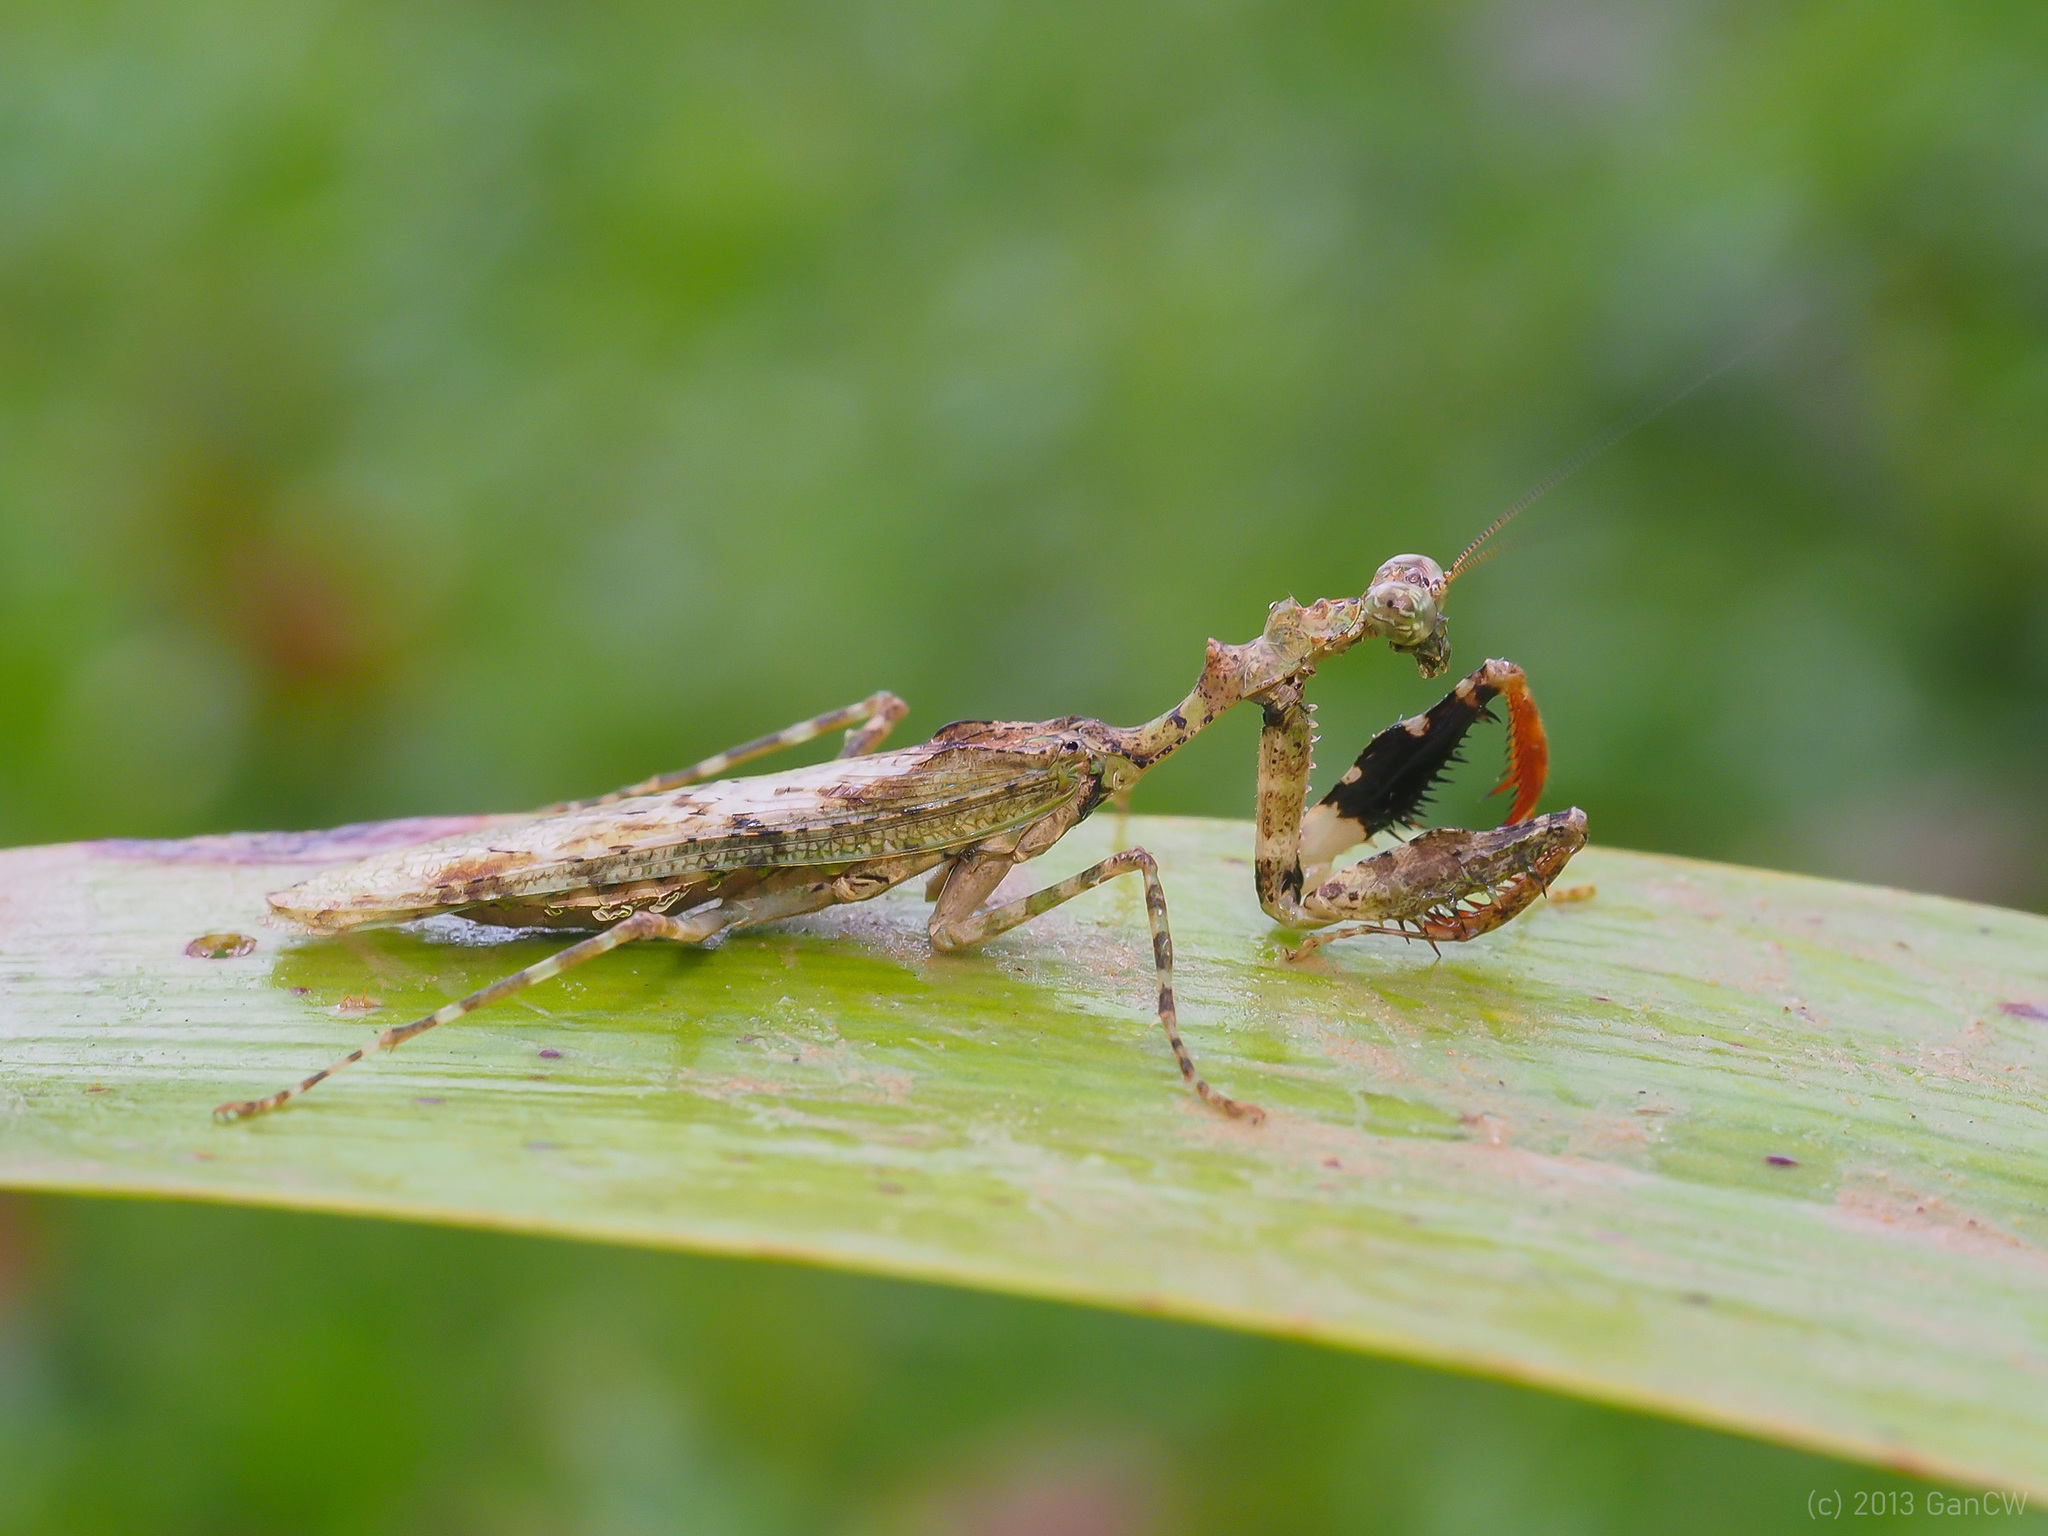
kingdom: Animalia
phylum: Arthropoda
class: Insecta
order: Mantodea
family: Hymenopodidae
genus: Majangella
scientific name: Majangella moultoni
